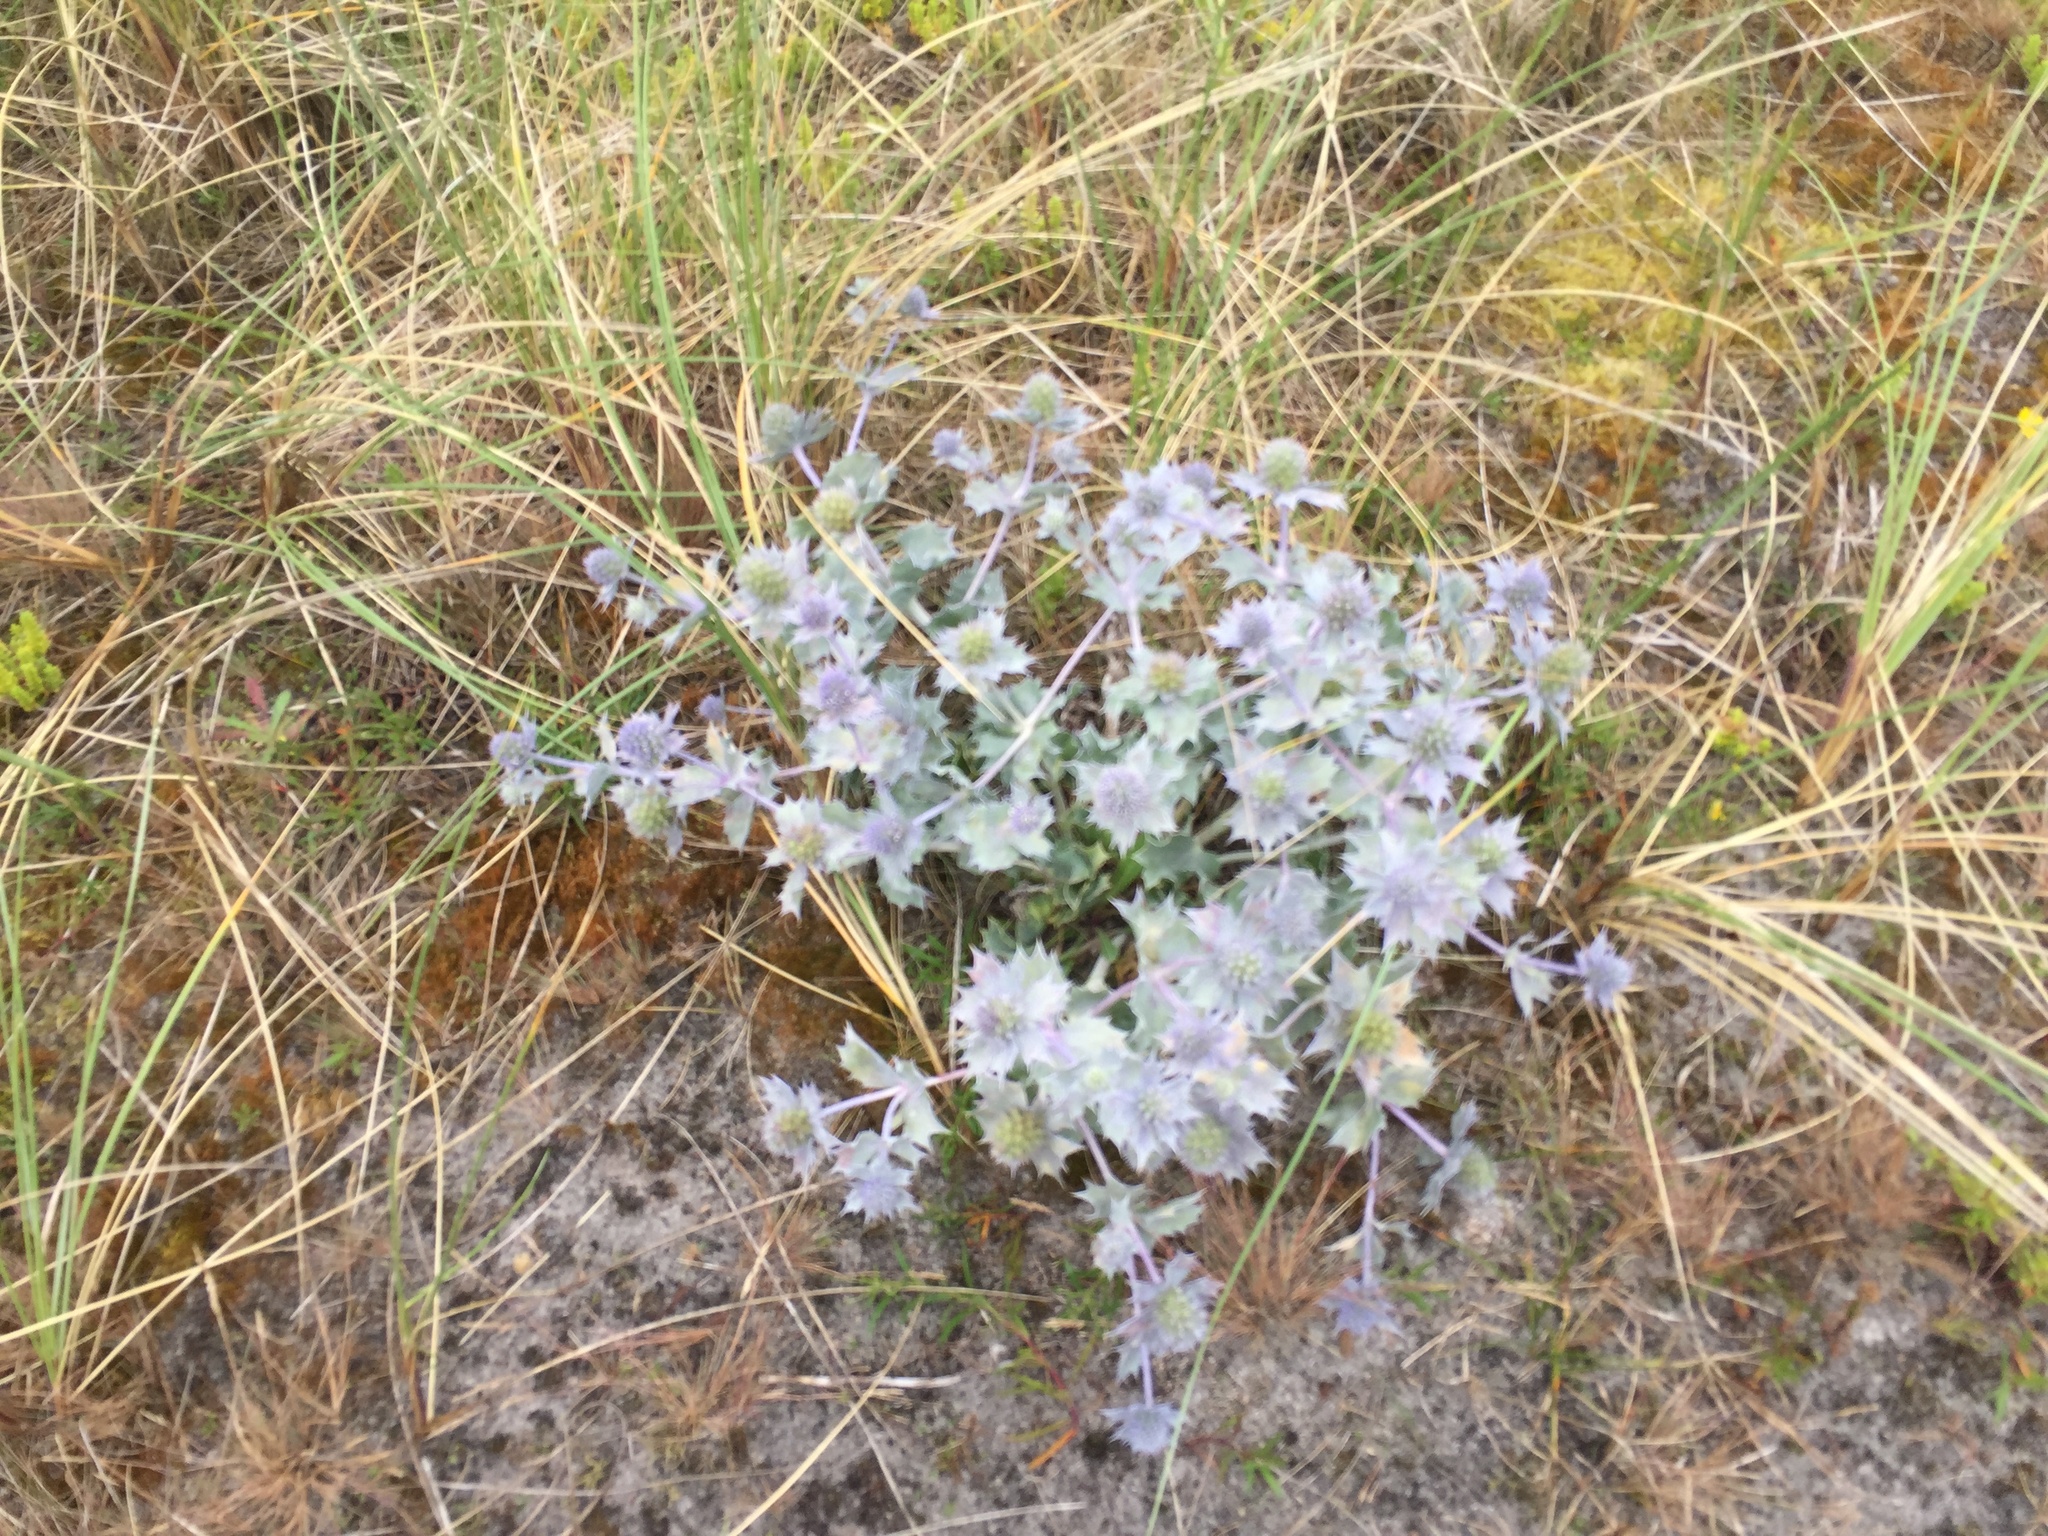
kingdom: Plantae
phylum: Tracheophyta
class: Magnoliopsida
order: Apiales
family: Apiaceae
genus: Eryngium
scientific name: Eryngium maritimum
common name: Sea-holly
